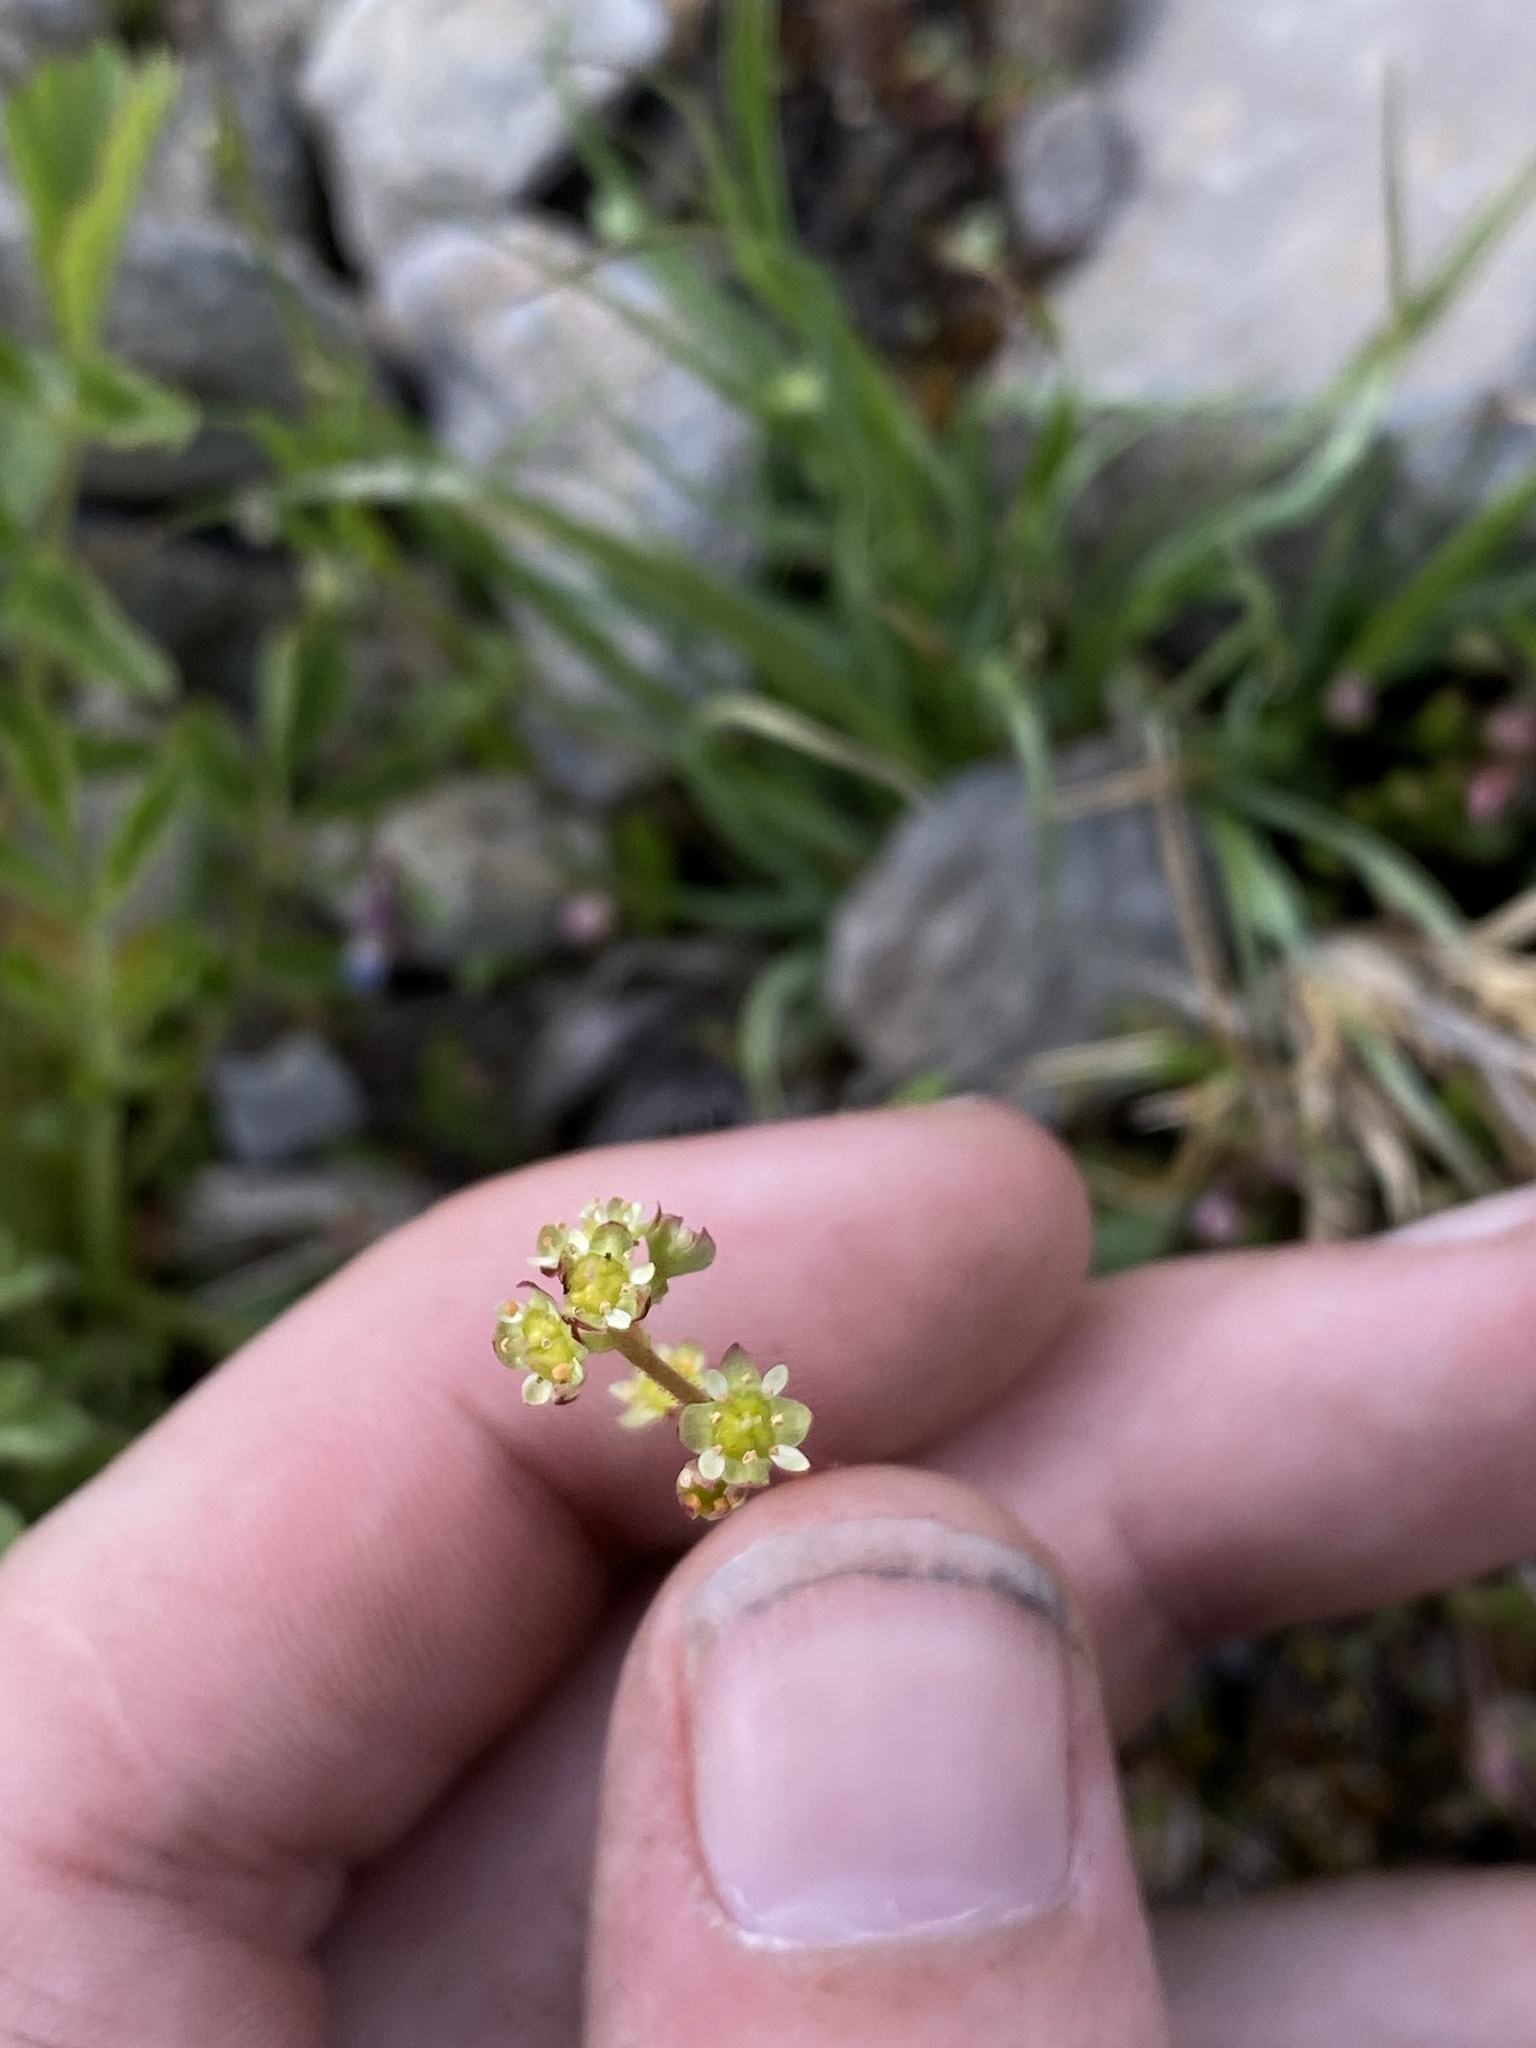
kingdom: Plantae
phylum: Tracheophyta
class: Magnoliopsida
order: Saxifragales
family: Saxifragaceae
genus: Micranthes
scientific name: Micranthes oregana
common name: Bog saxifrage
